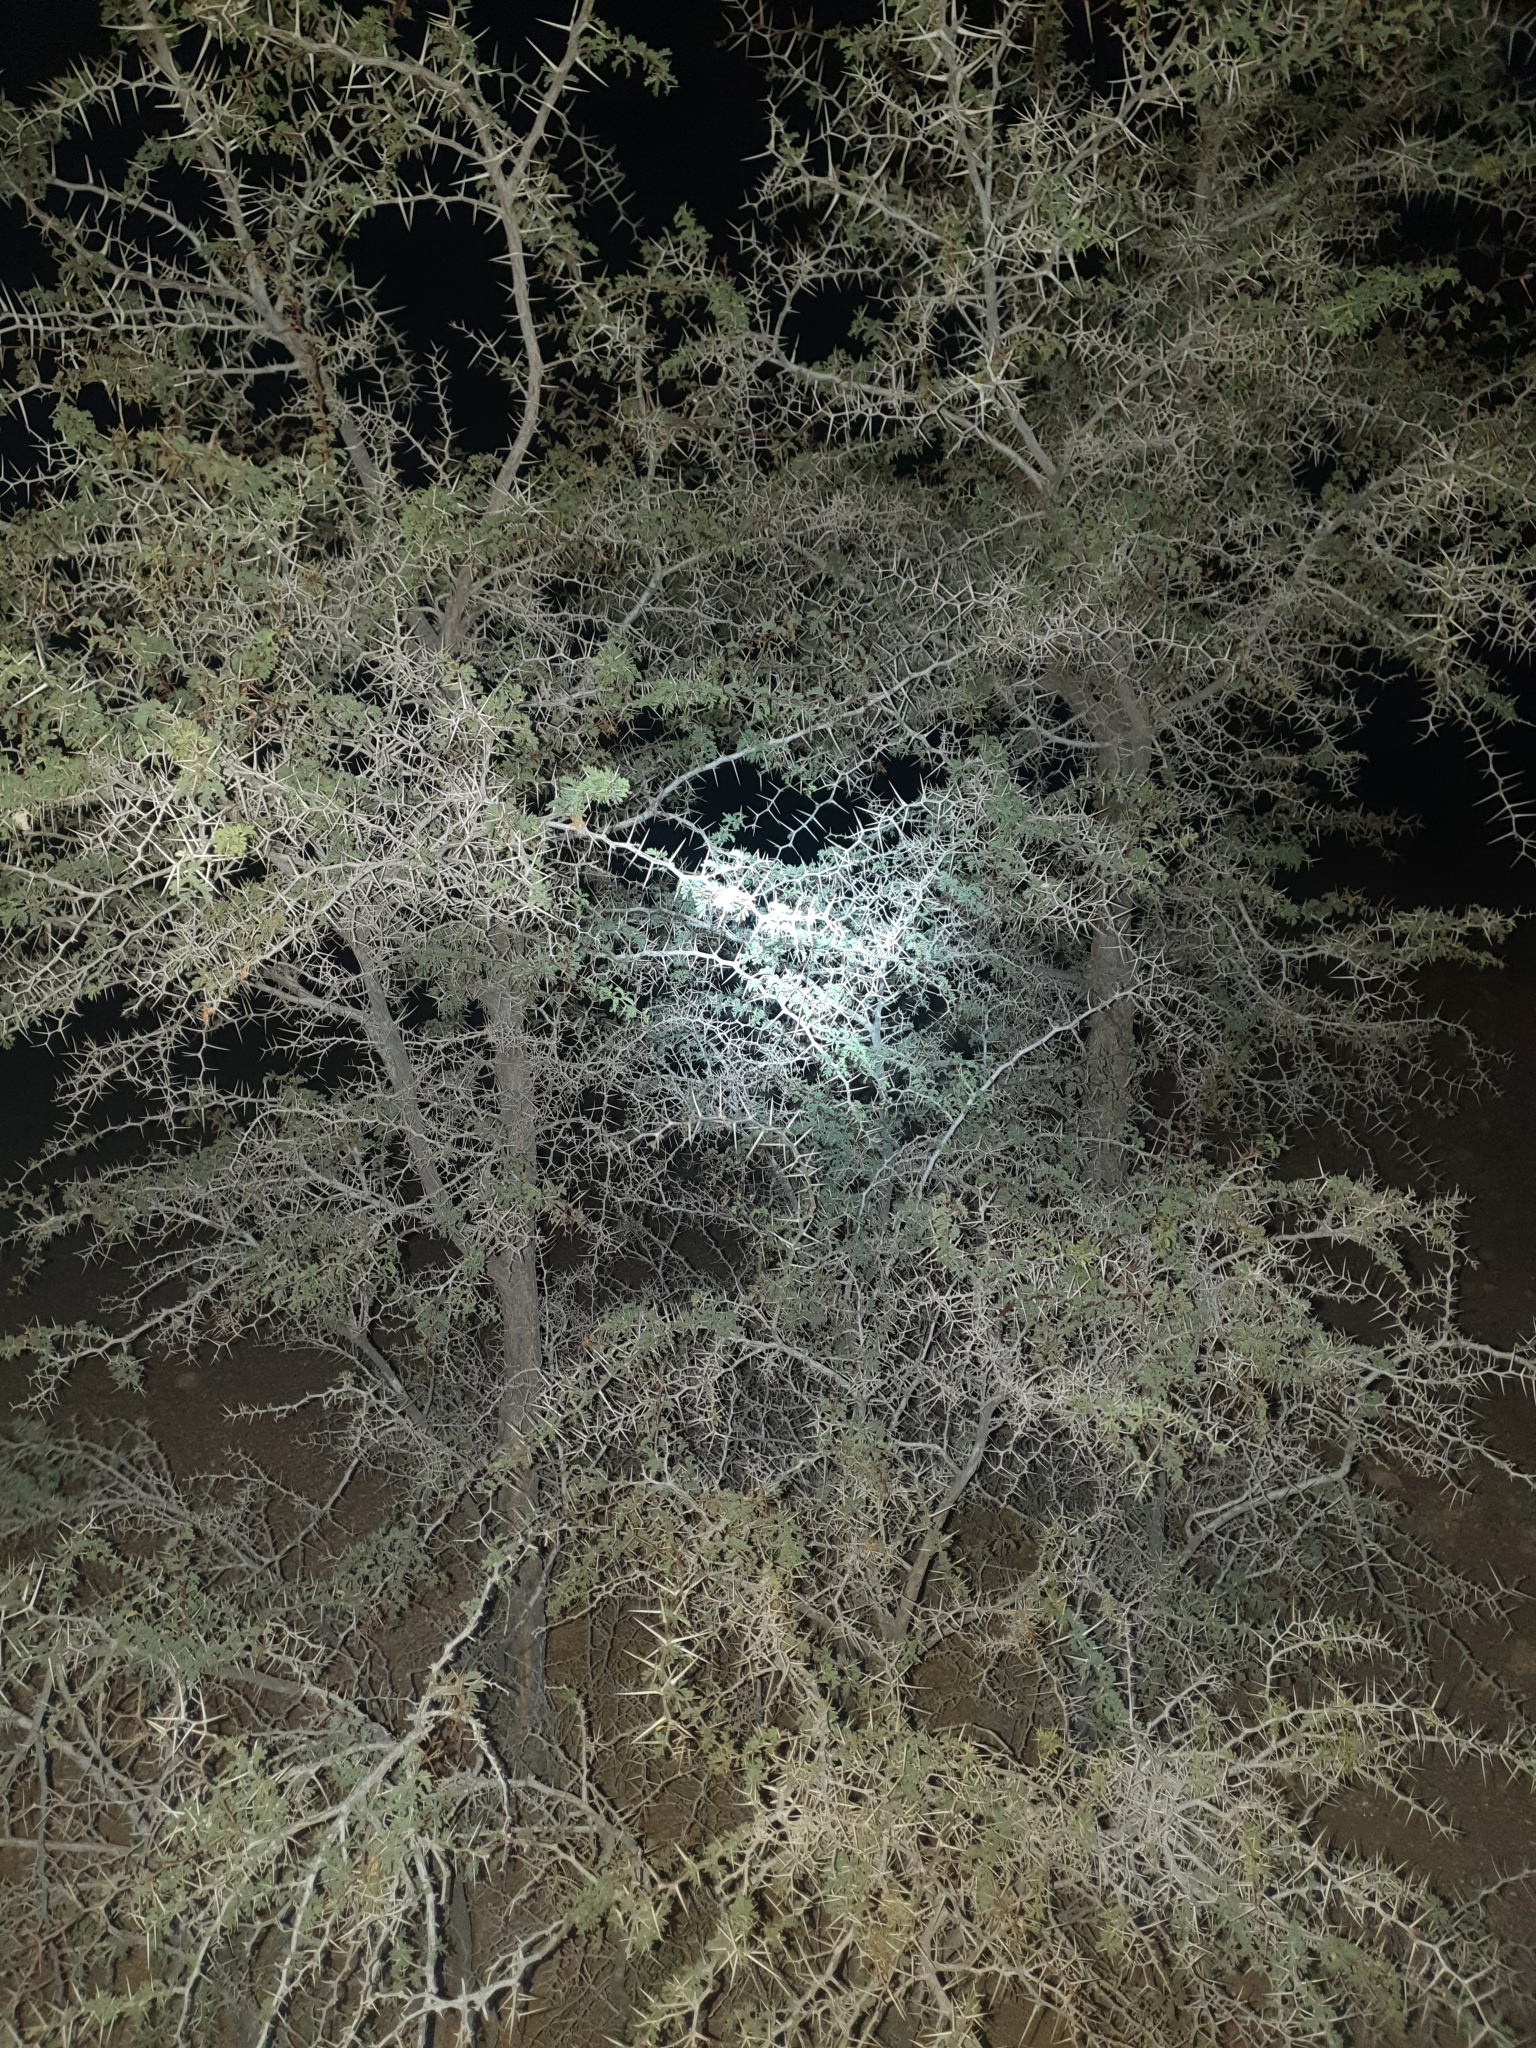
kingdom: Plantae
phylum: Tracheophyta
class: Magnoliopsida
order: Fabales
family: Fabaceae
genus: Vachellia
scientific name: Vachellia erioloba
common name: Camel thorn
